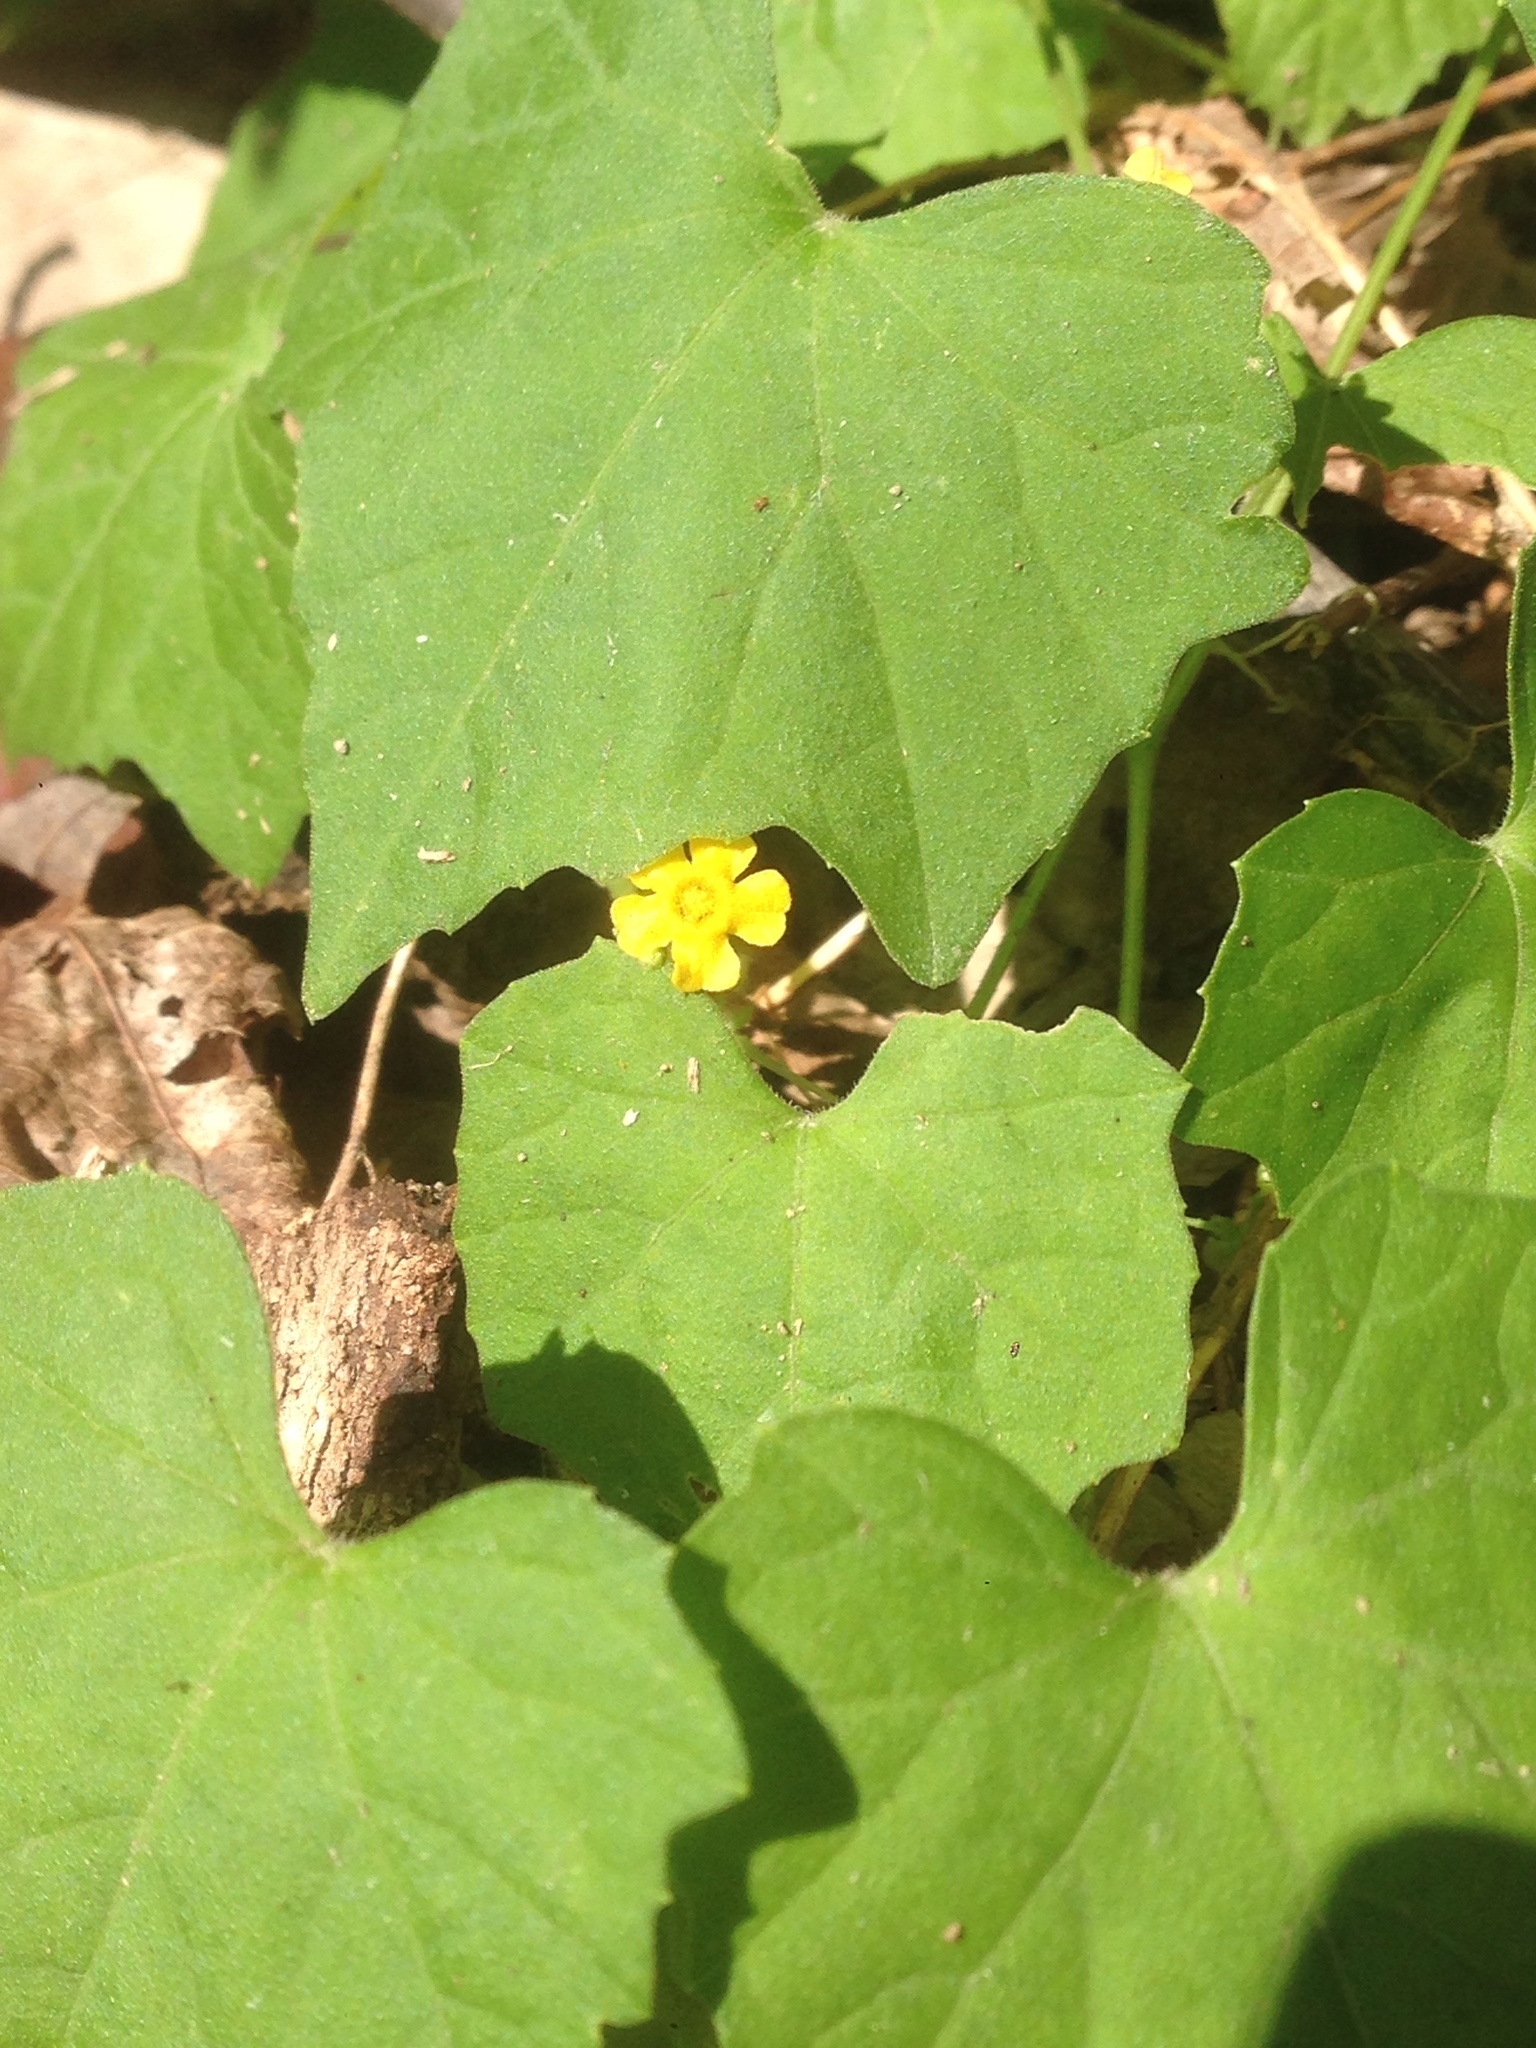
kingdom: Plantae
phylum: Tracheophyta
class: Magnoliopsida
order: Cucurbitales
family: Cucurbitaceae
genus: Melothria
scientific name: Melothria pendula
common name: Creeping-cucumber
